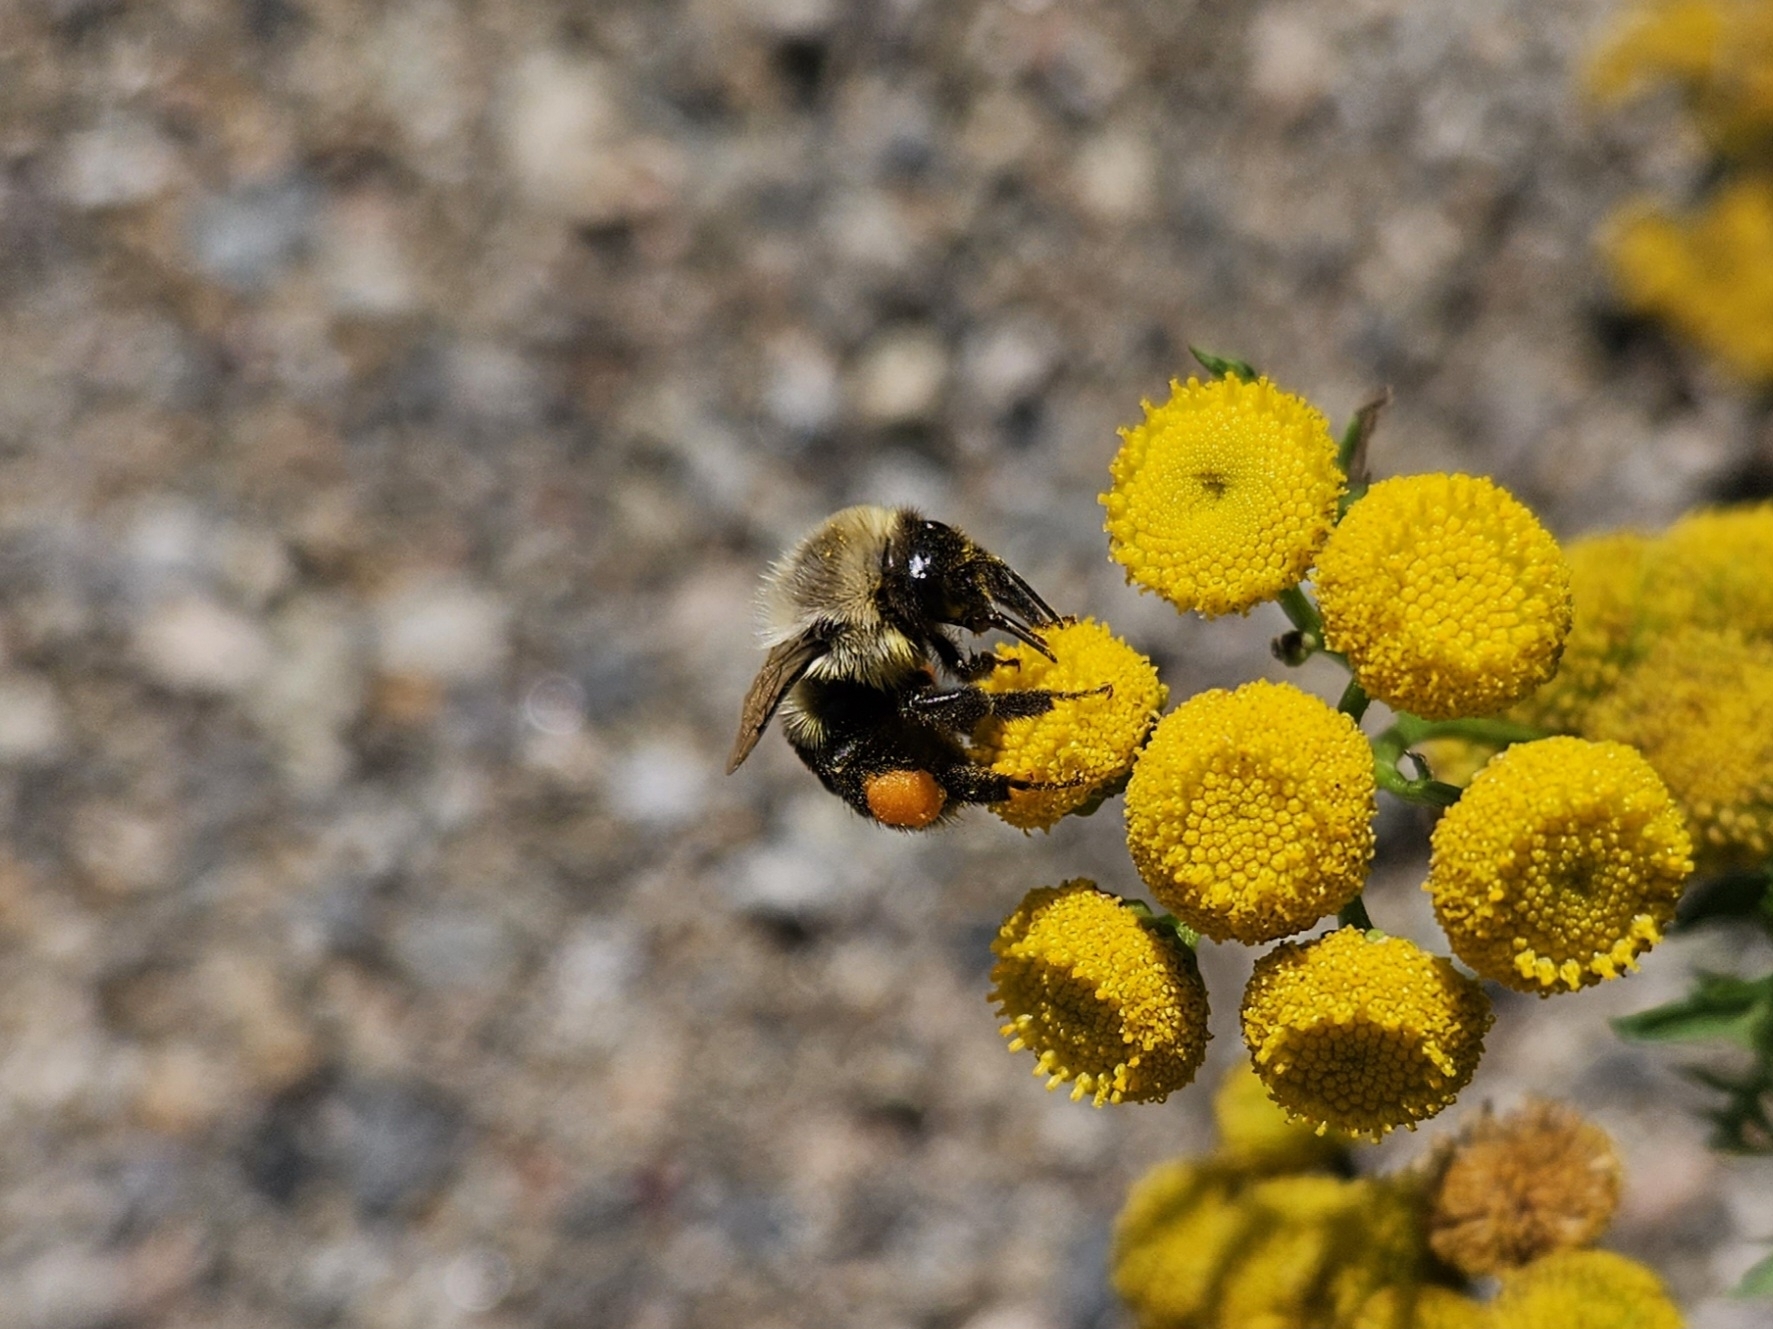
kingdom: Animalia
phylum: Arthropoda
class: Insecta
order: Hymenoptera
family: Apidae
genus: Bombus
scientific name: Bombus impatiens
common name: Common eastern bumble bee
